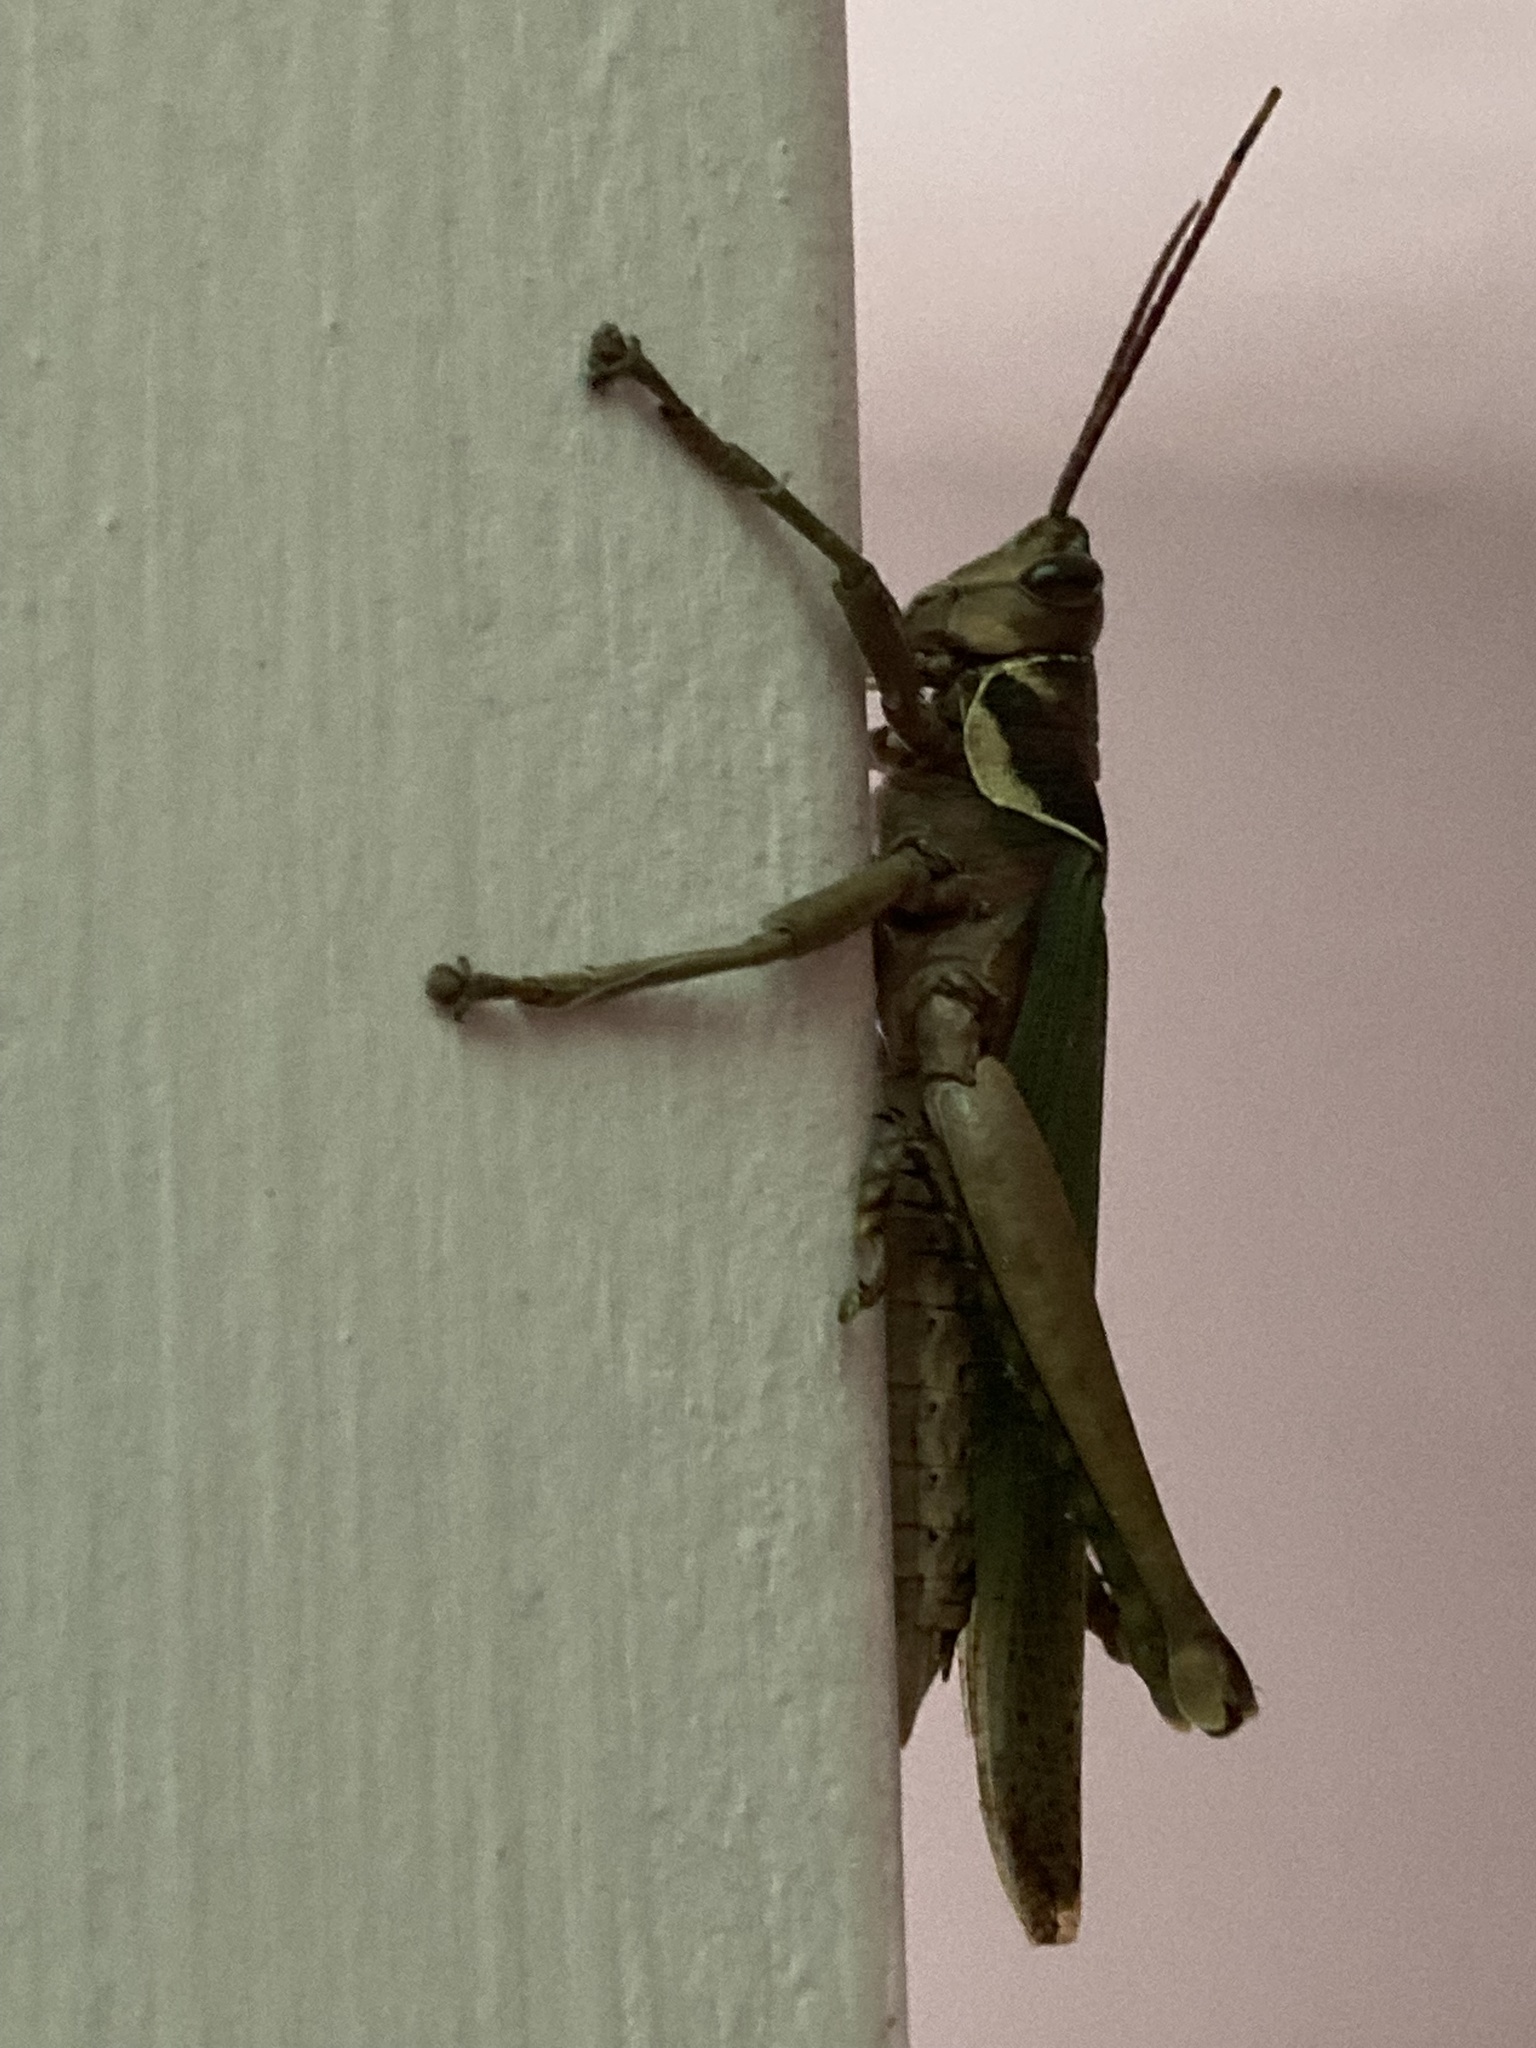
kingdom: Animalia
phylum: Arthropoda
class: Insecta
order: Orthoptera
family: Romaleidae
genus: Coryacris
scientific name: Coryacris angustipennis
